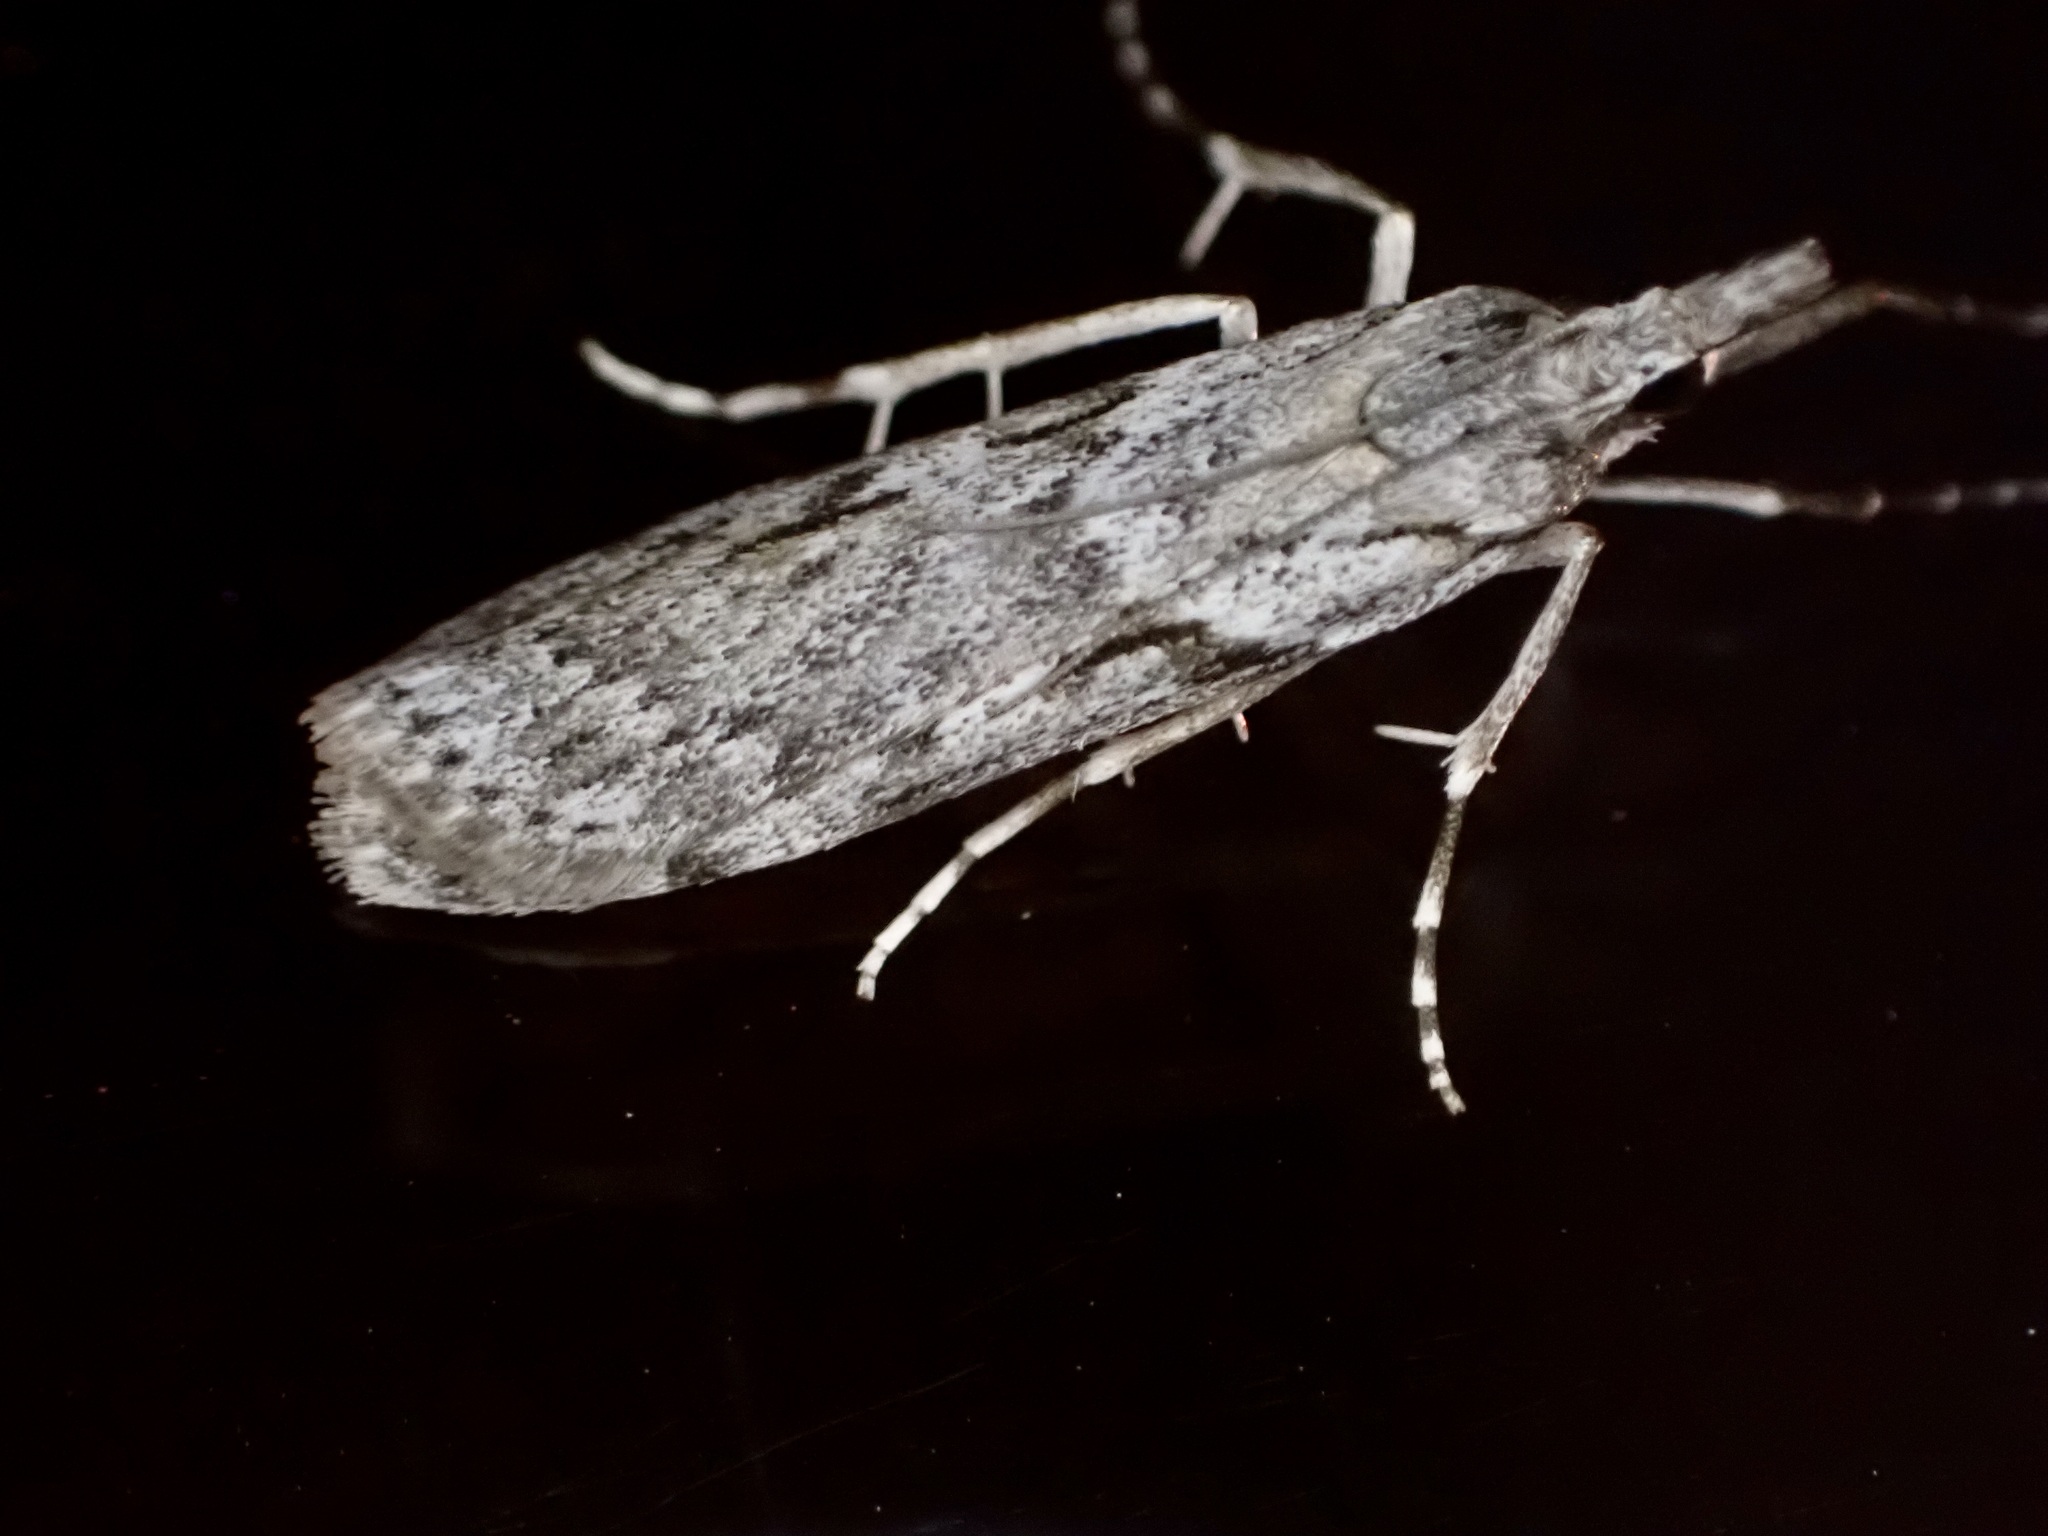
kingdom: Animalia
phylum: Arthropoda
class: Insecta
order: Lepidoptera
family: Crambidae
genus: Scoparia
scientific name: Scoparia halopis
